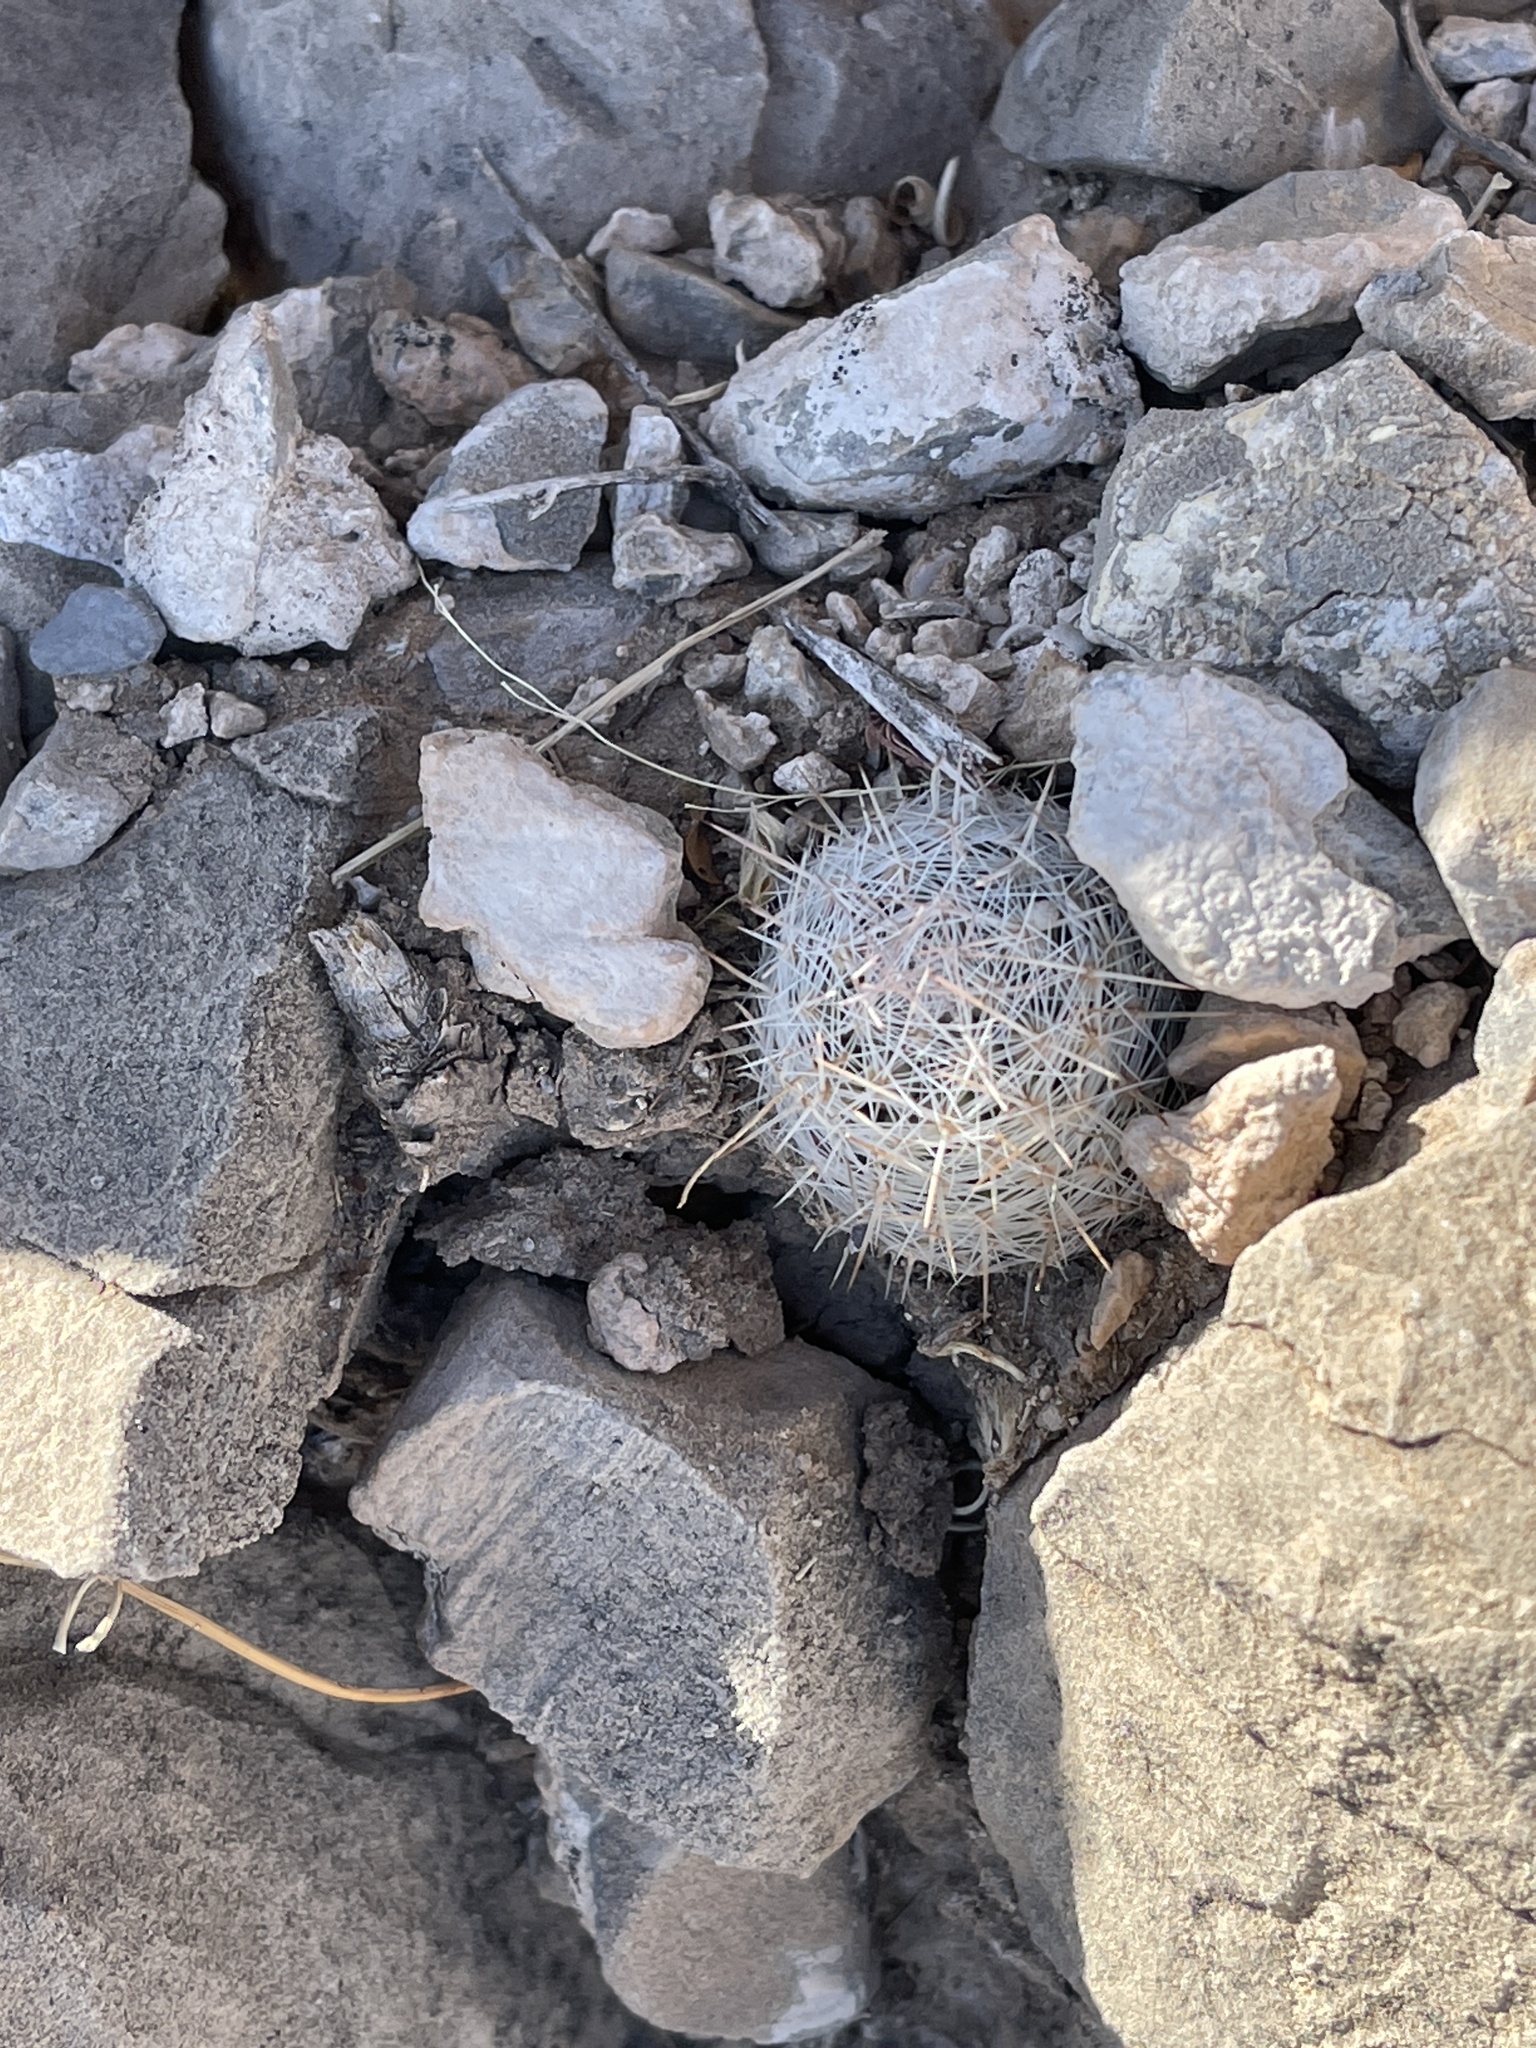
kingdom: Plantae
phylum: Tracheophyta
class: Magnoliopsida
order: Caryophyllales
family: Cactaceae
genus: Pelecyphora
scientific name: Pelecyphora vivipara
